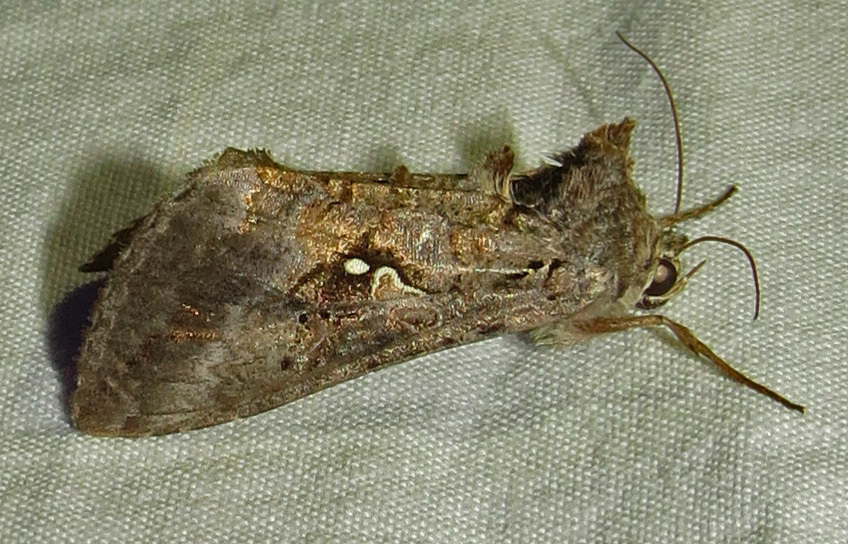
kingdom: Animalia
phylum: Arthropoda
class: Insecta
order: Lepidoptera
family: Noctuidae
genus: Rachiplusia
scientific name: Rachiplusia ou
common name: Gray looper moth
